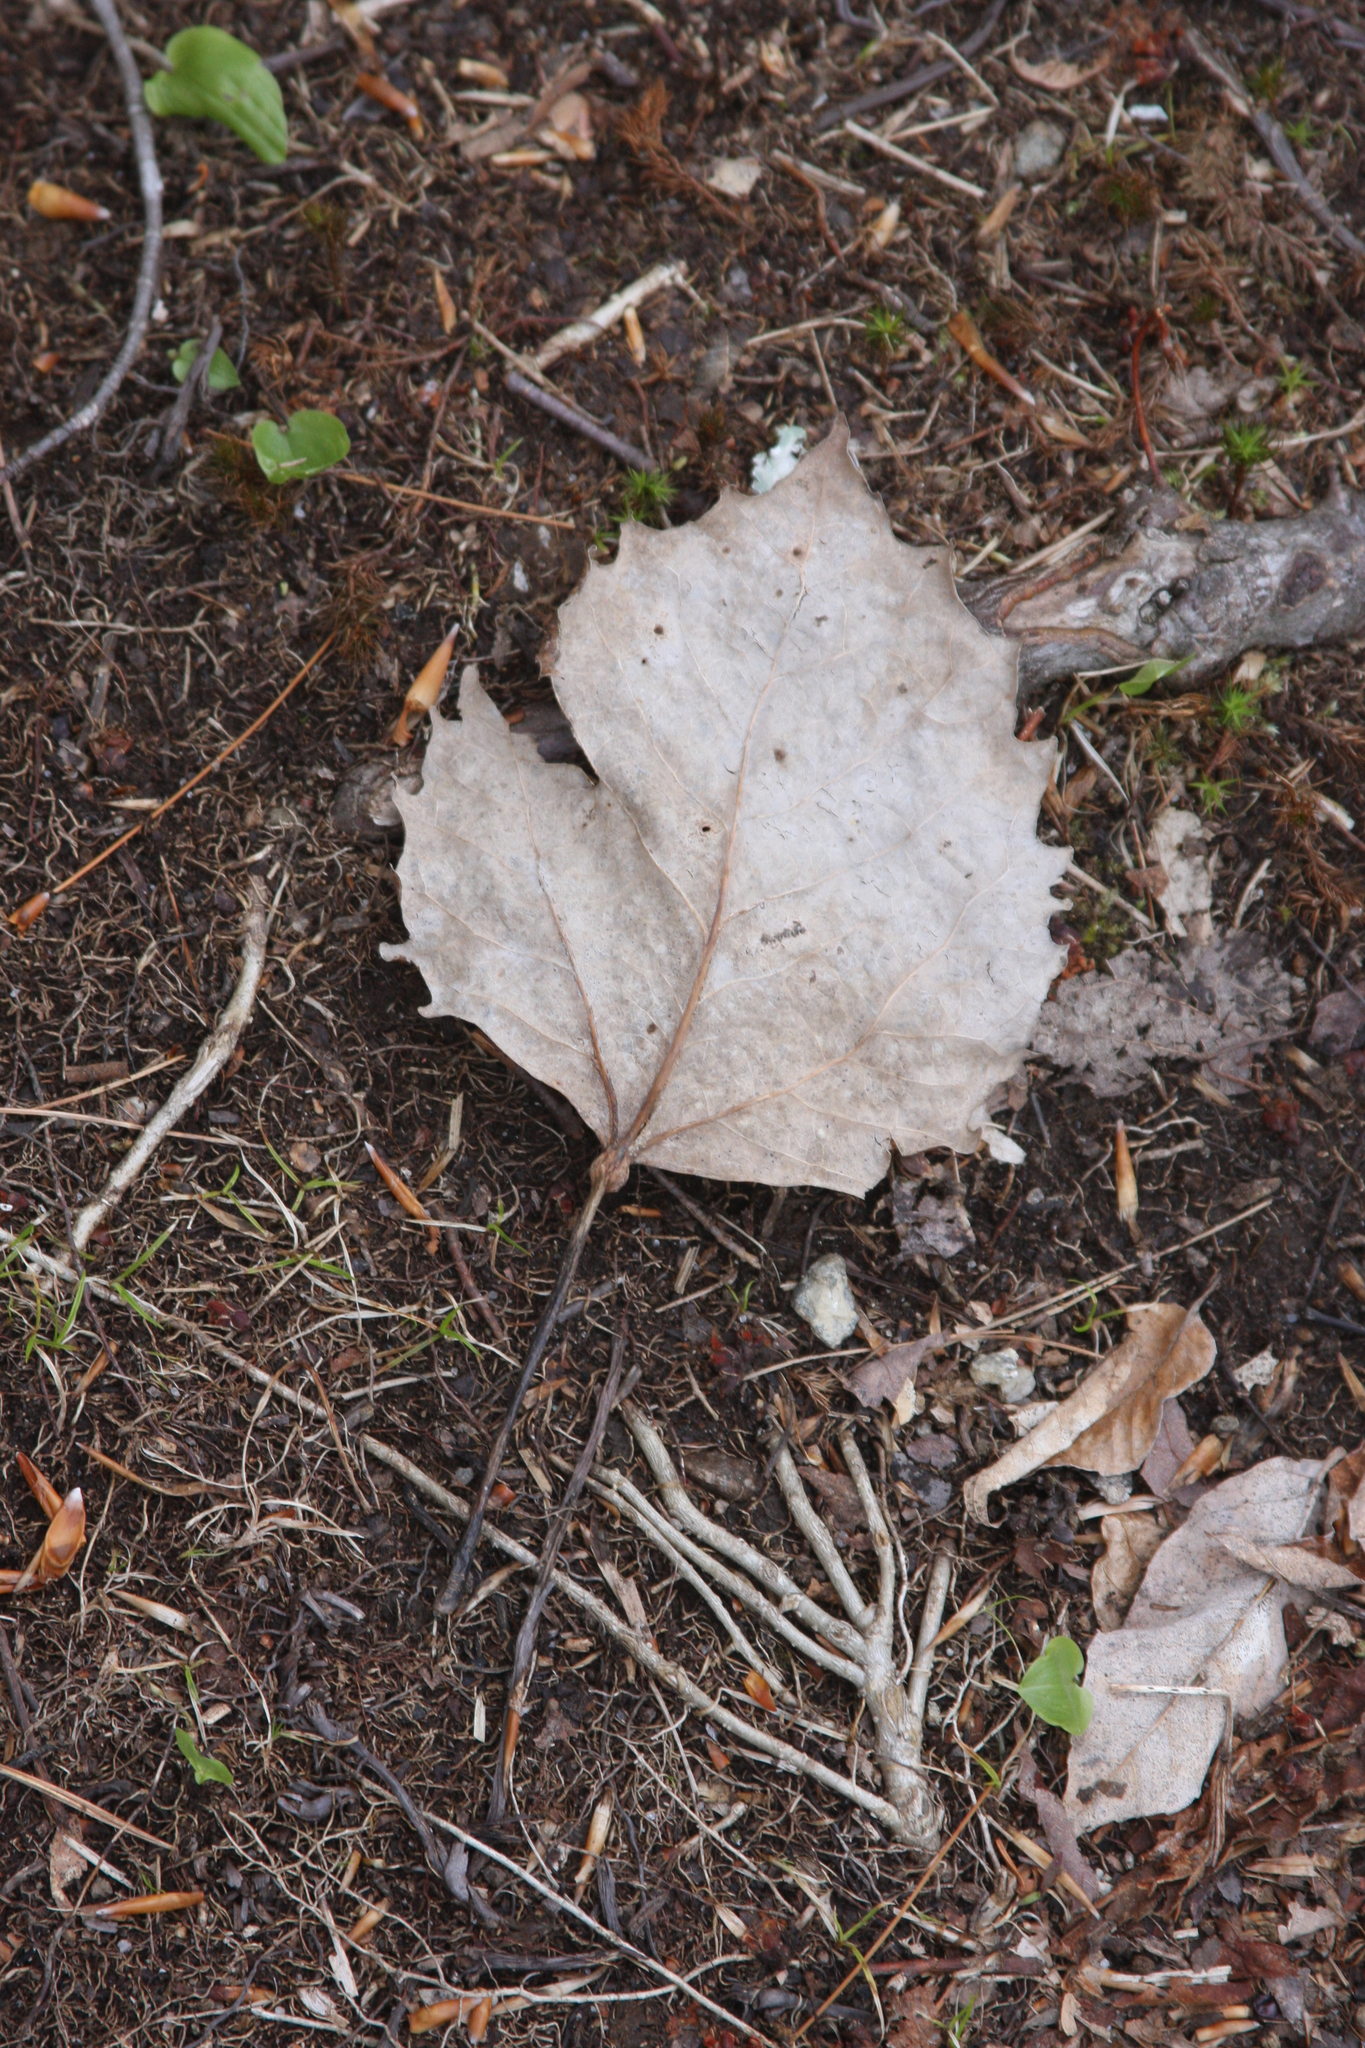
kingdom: Plantae
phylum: Tracheophyta
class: Magnoliopsida
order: Malpighiales
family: Salicaceae
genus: Populus
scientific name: Populus grandidentata
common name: Bigtooth aspen
